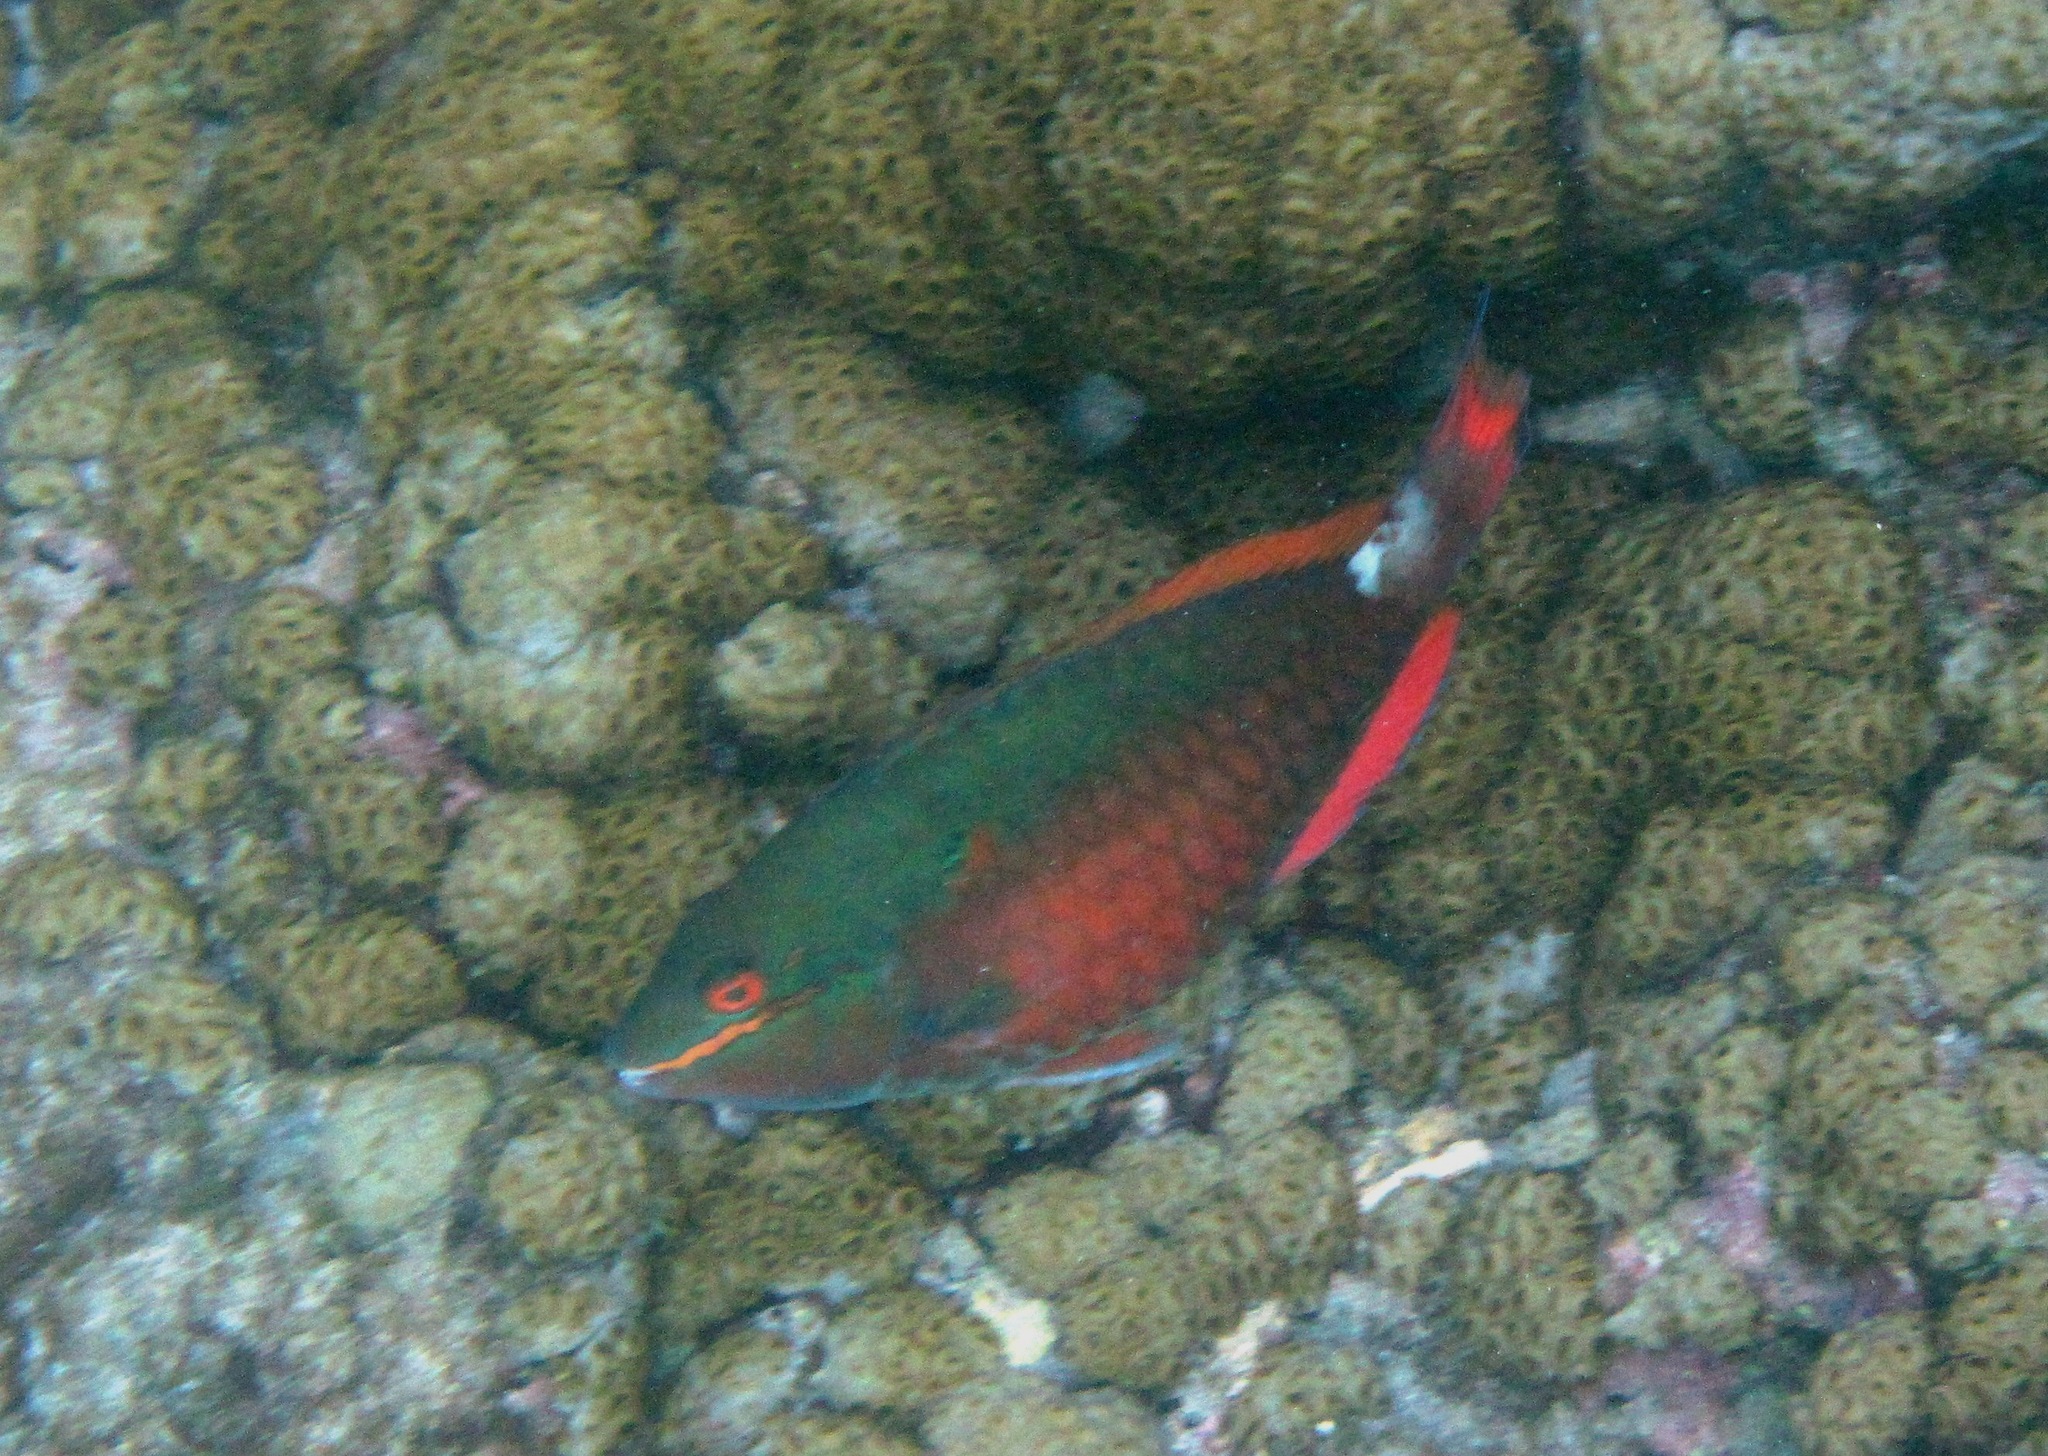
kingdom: Animalia
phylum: Chordata
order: Perciformes
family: Scaridae
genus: Sparisoma
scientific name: Sparisoma aurofrenatum
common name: Redband parrotfish
